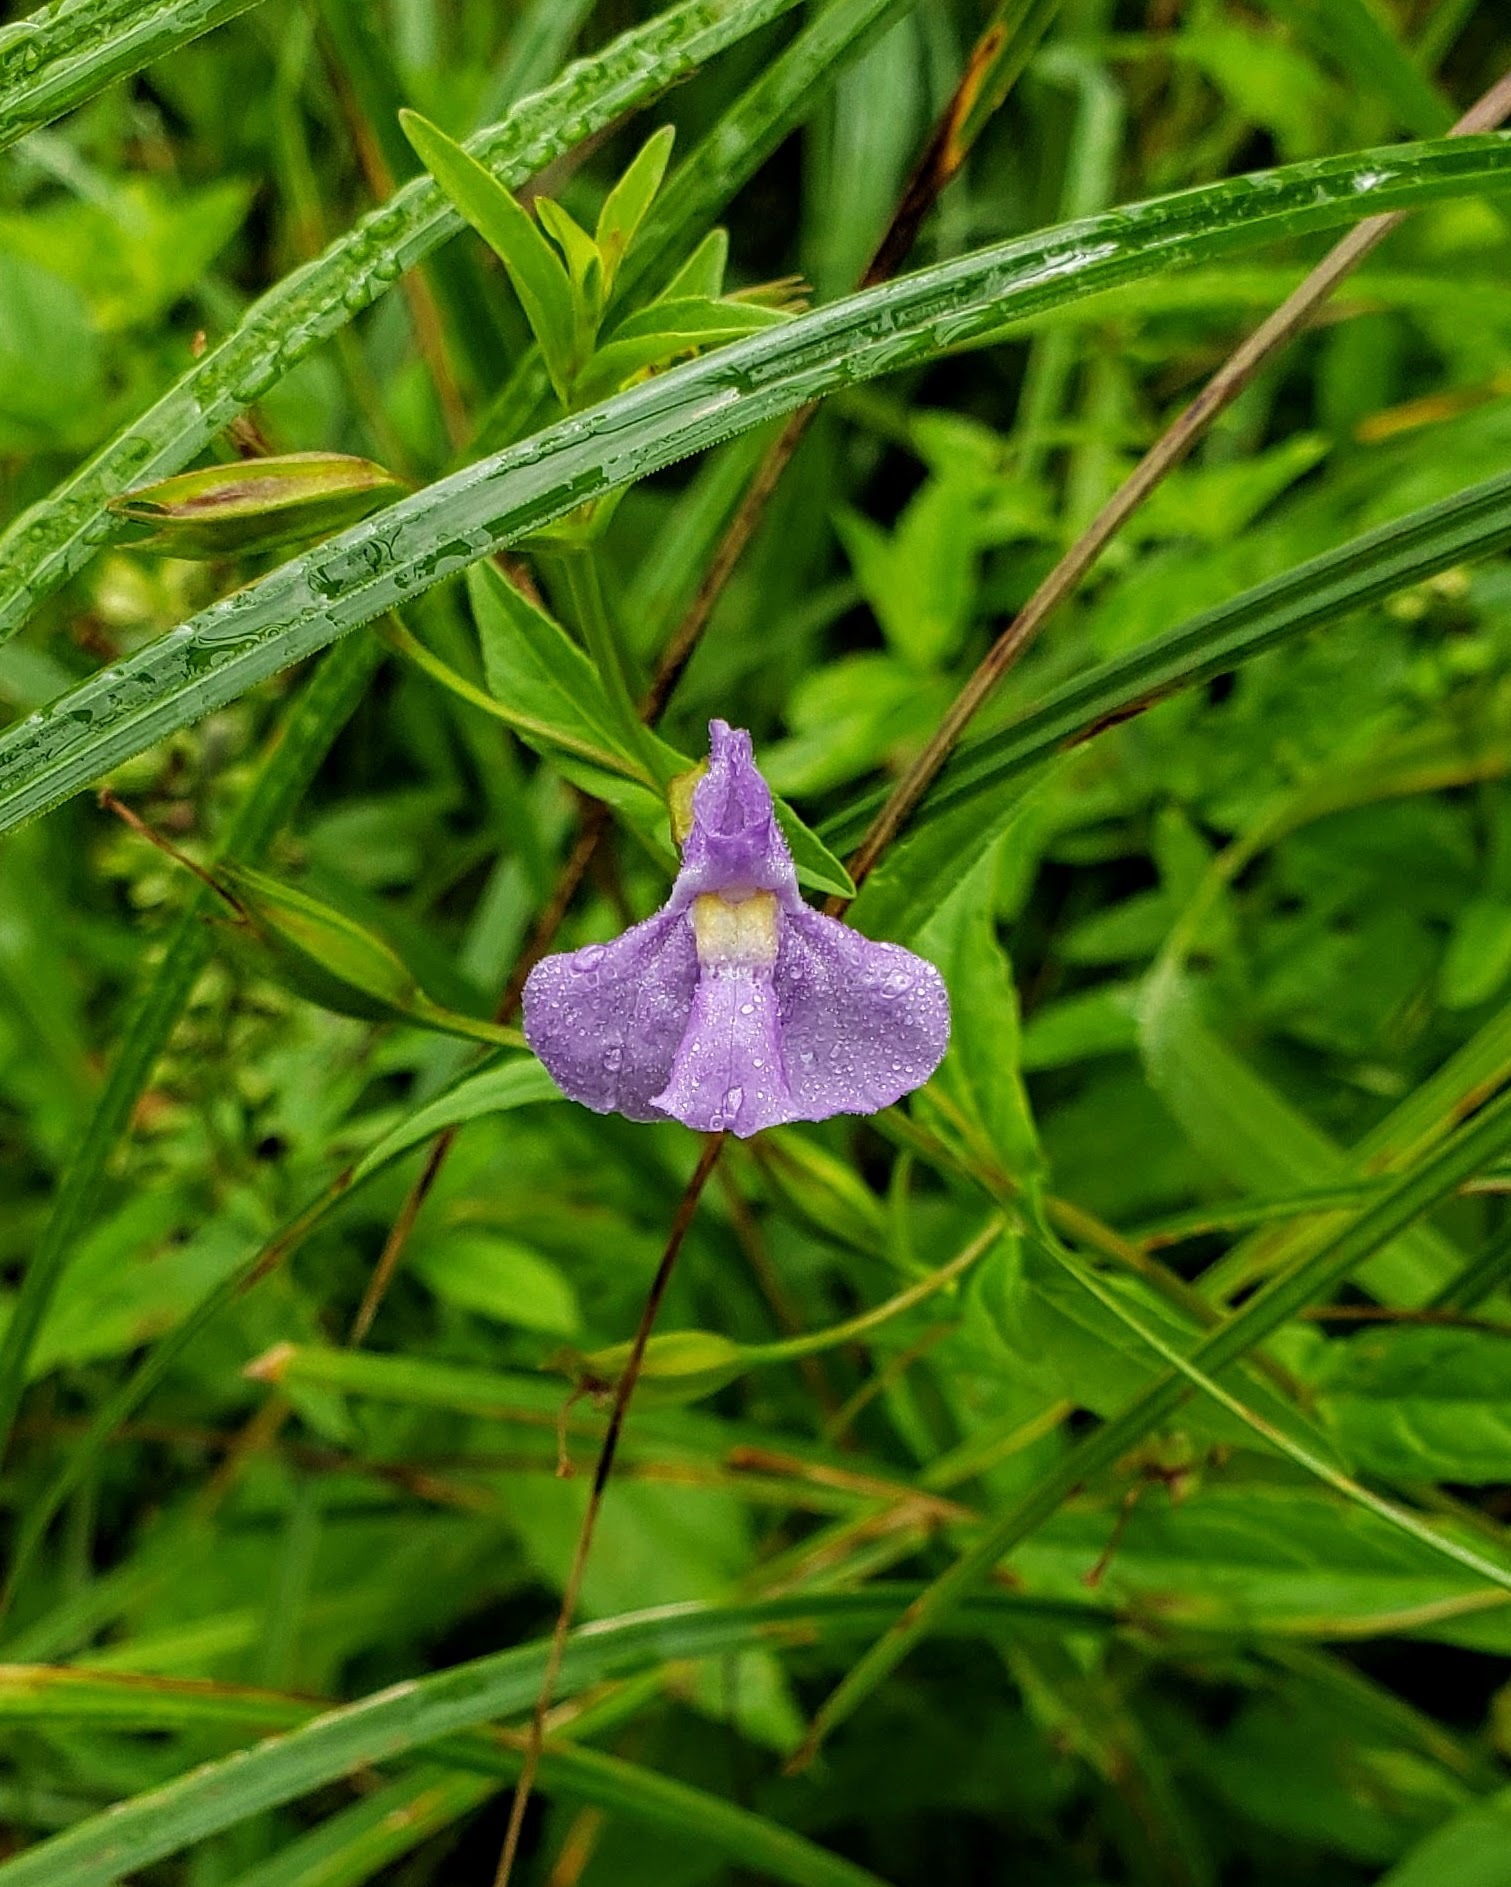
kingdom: Plantae
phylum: Tracheophyta
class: Magnoliopsida
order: Lamiales
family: Phrymaceae
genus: Mimulus
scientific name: Mimulus ringens
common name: Allegheny monkeyflower
